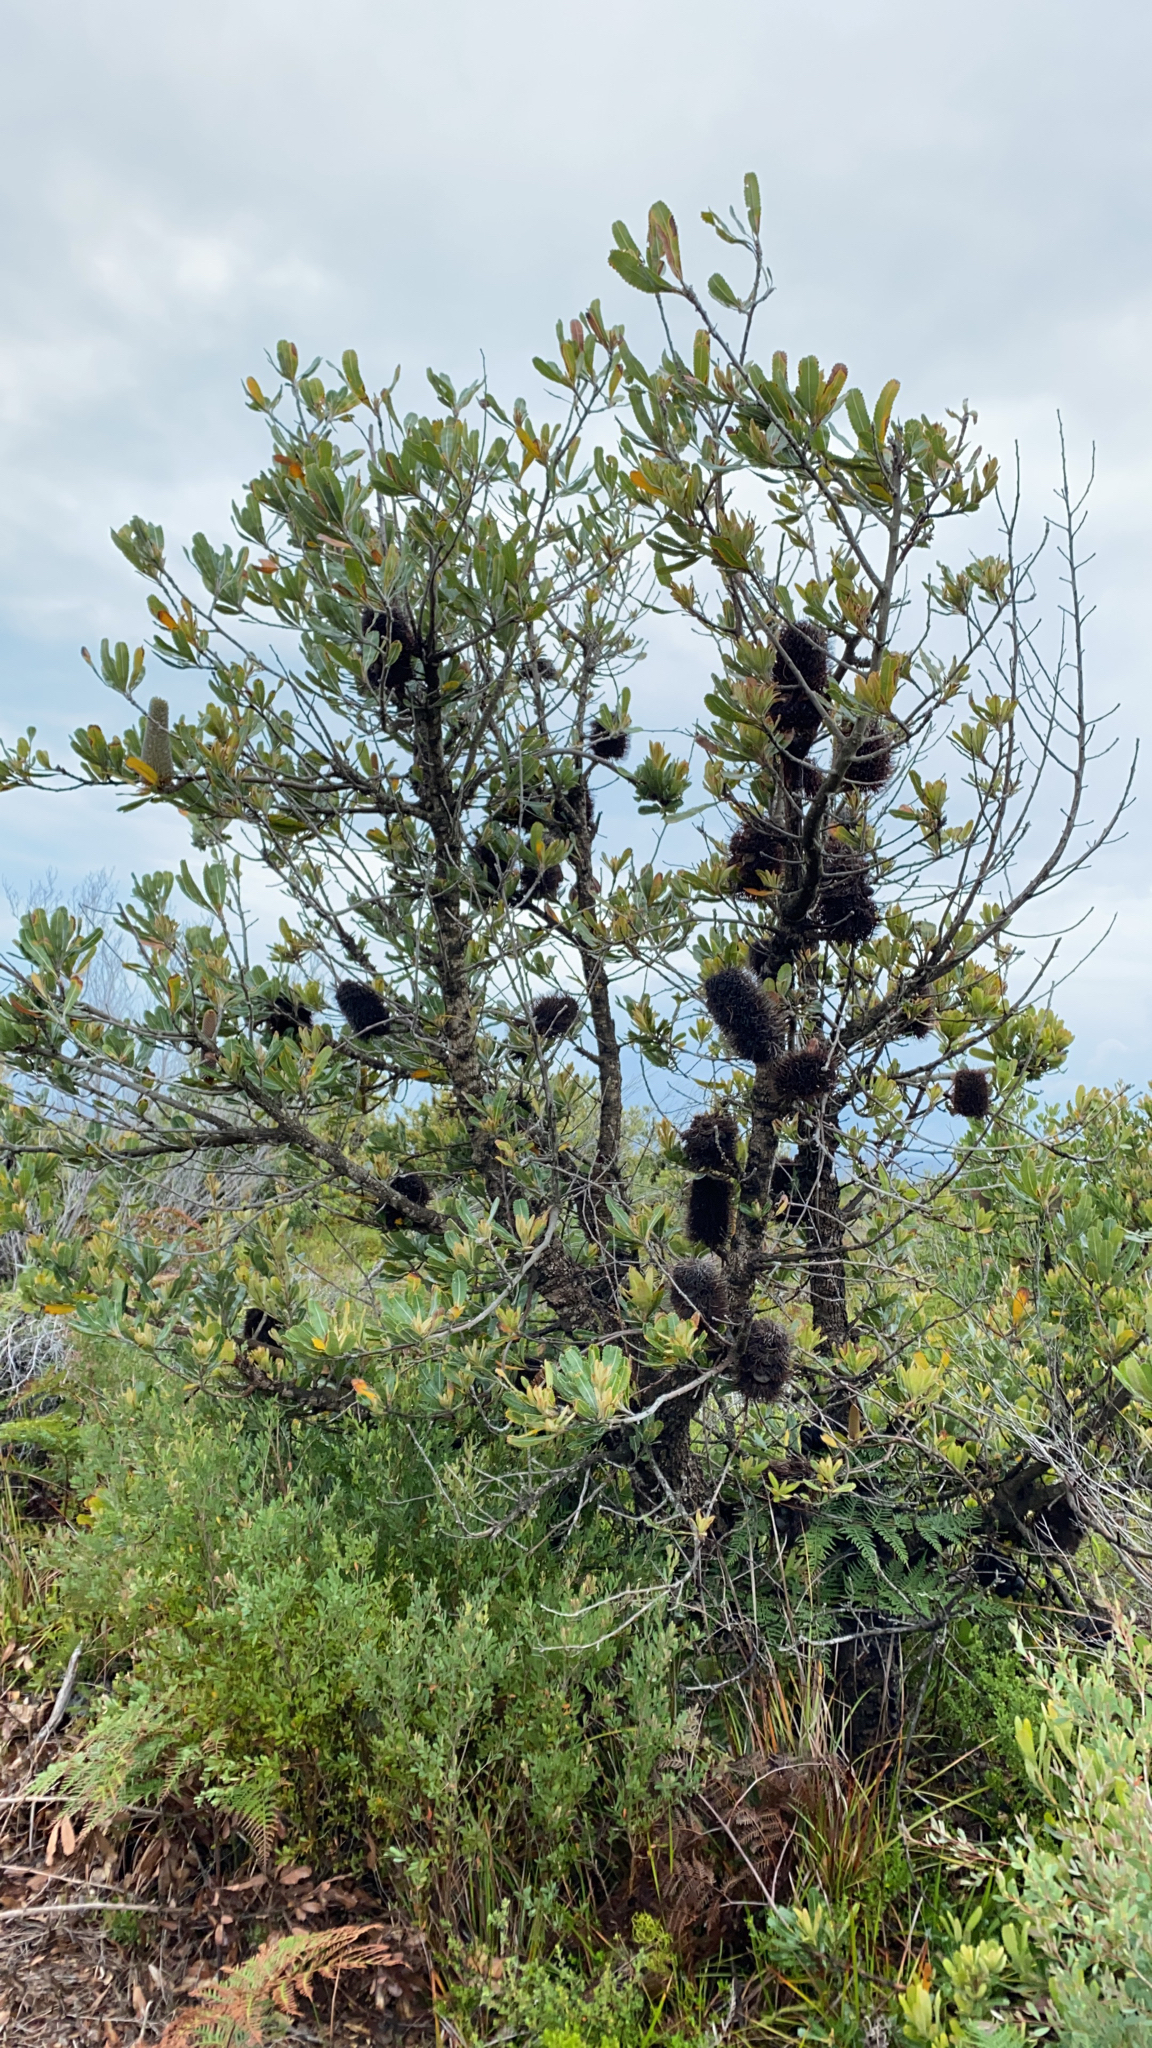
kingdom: Plantae
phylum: Tracheophyta
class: Magnoliopsida
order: Proteales
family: Proteaceae
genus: Banksia
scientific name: Banksia serrata
